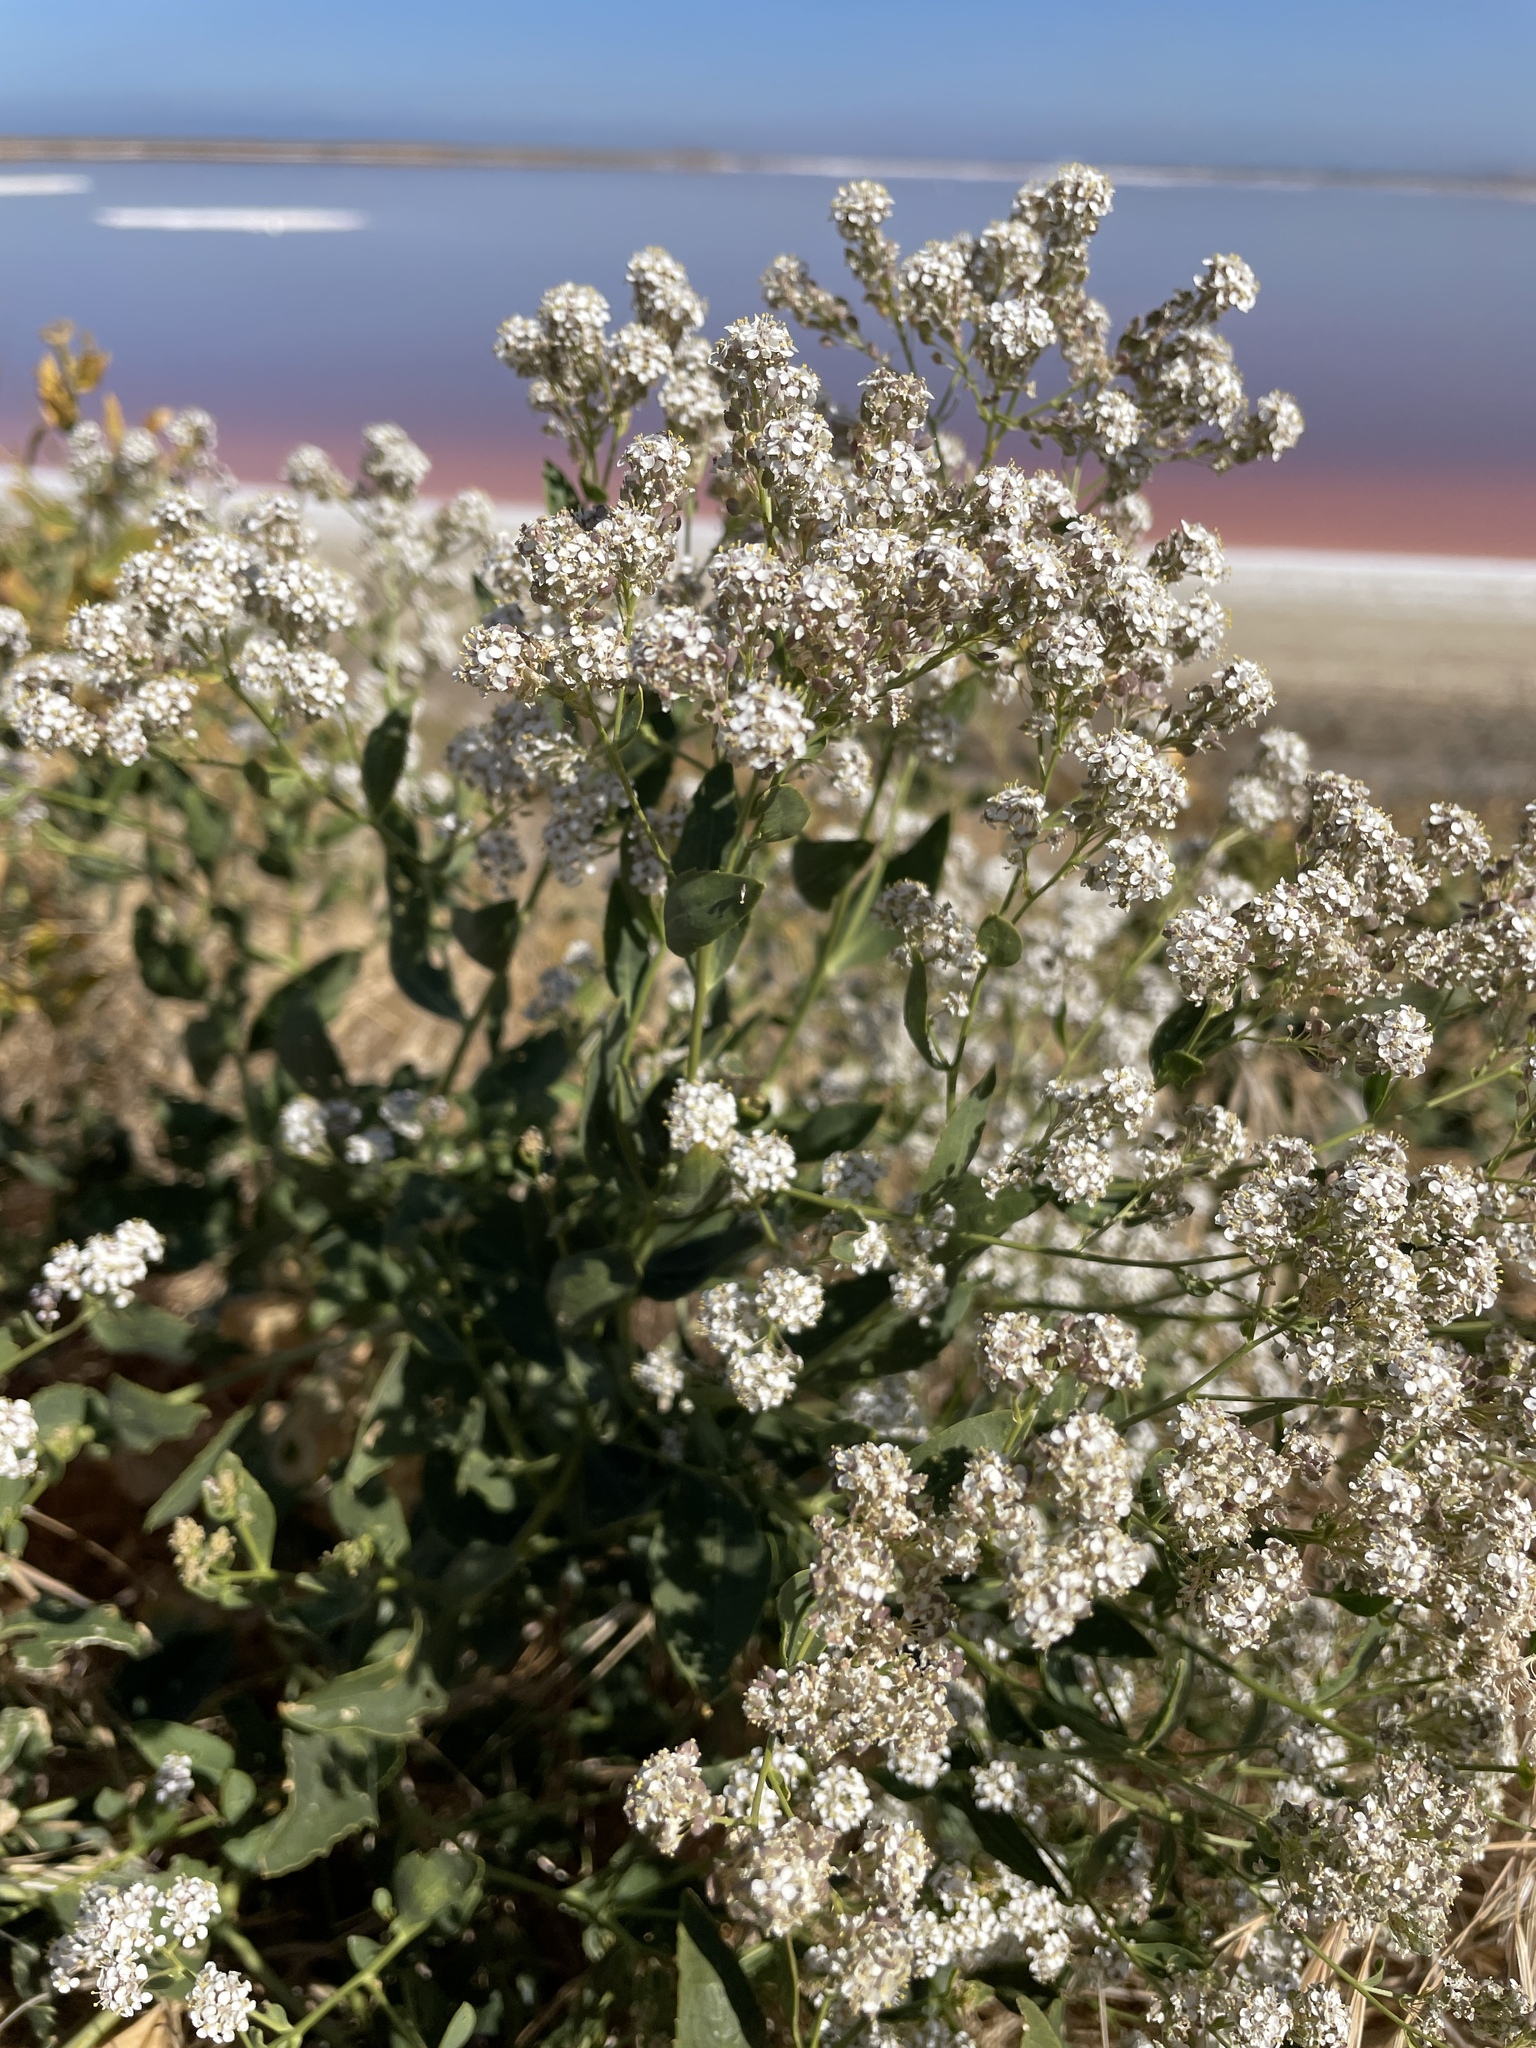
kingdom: Plantae
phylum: Tracheophyta
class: Magnoliopsida
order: Brassicales
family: Brassicaceae
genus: Lepidium
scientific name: Lepidium latifolium
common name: Dittander
